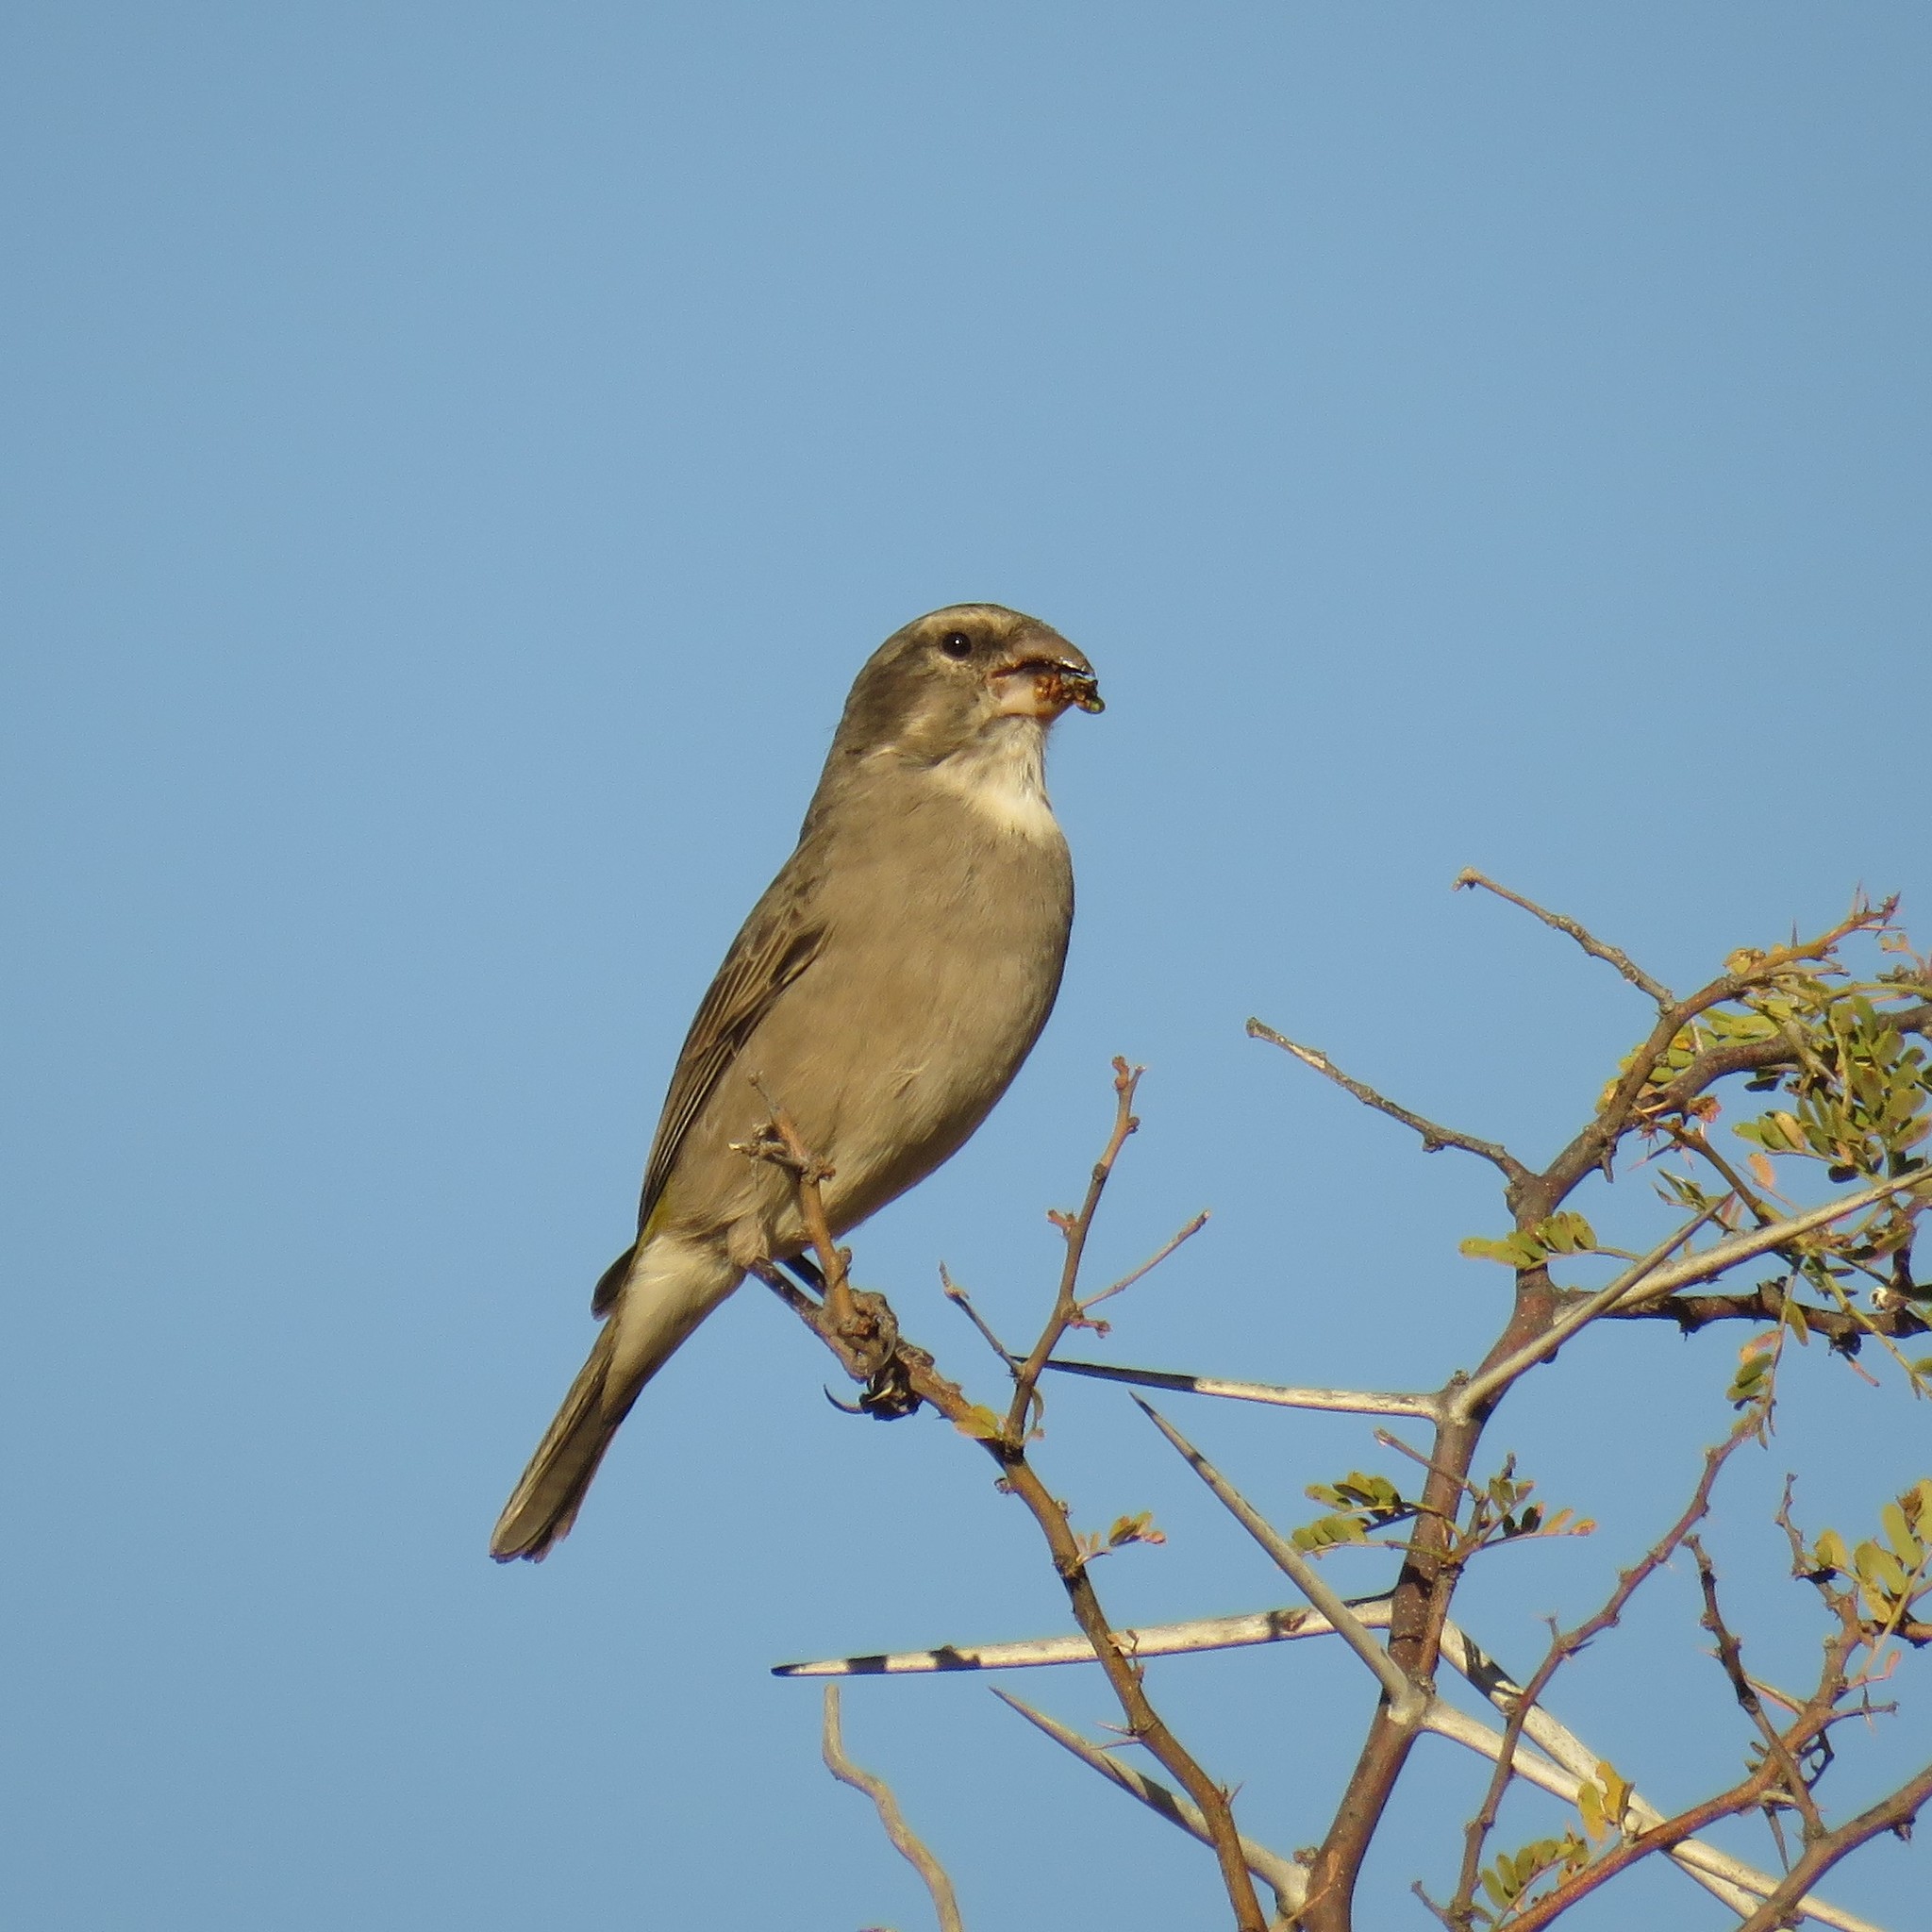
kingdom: Animalia
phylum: Chordata
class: Aves
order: Passeriformes
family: Fringillidae
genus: Crithagra
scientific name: Crithagra albogularis
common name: White-throated canary
